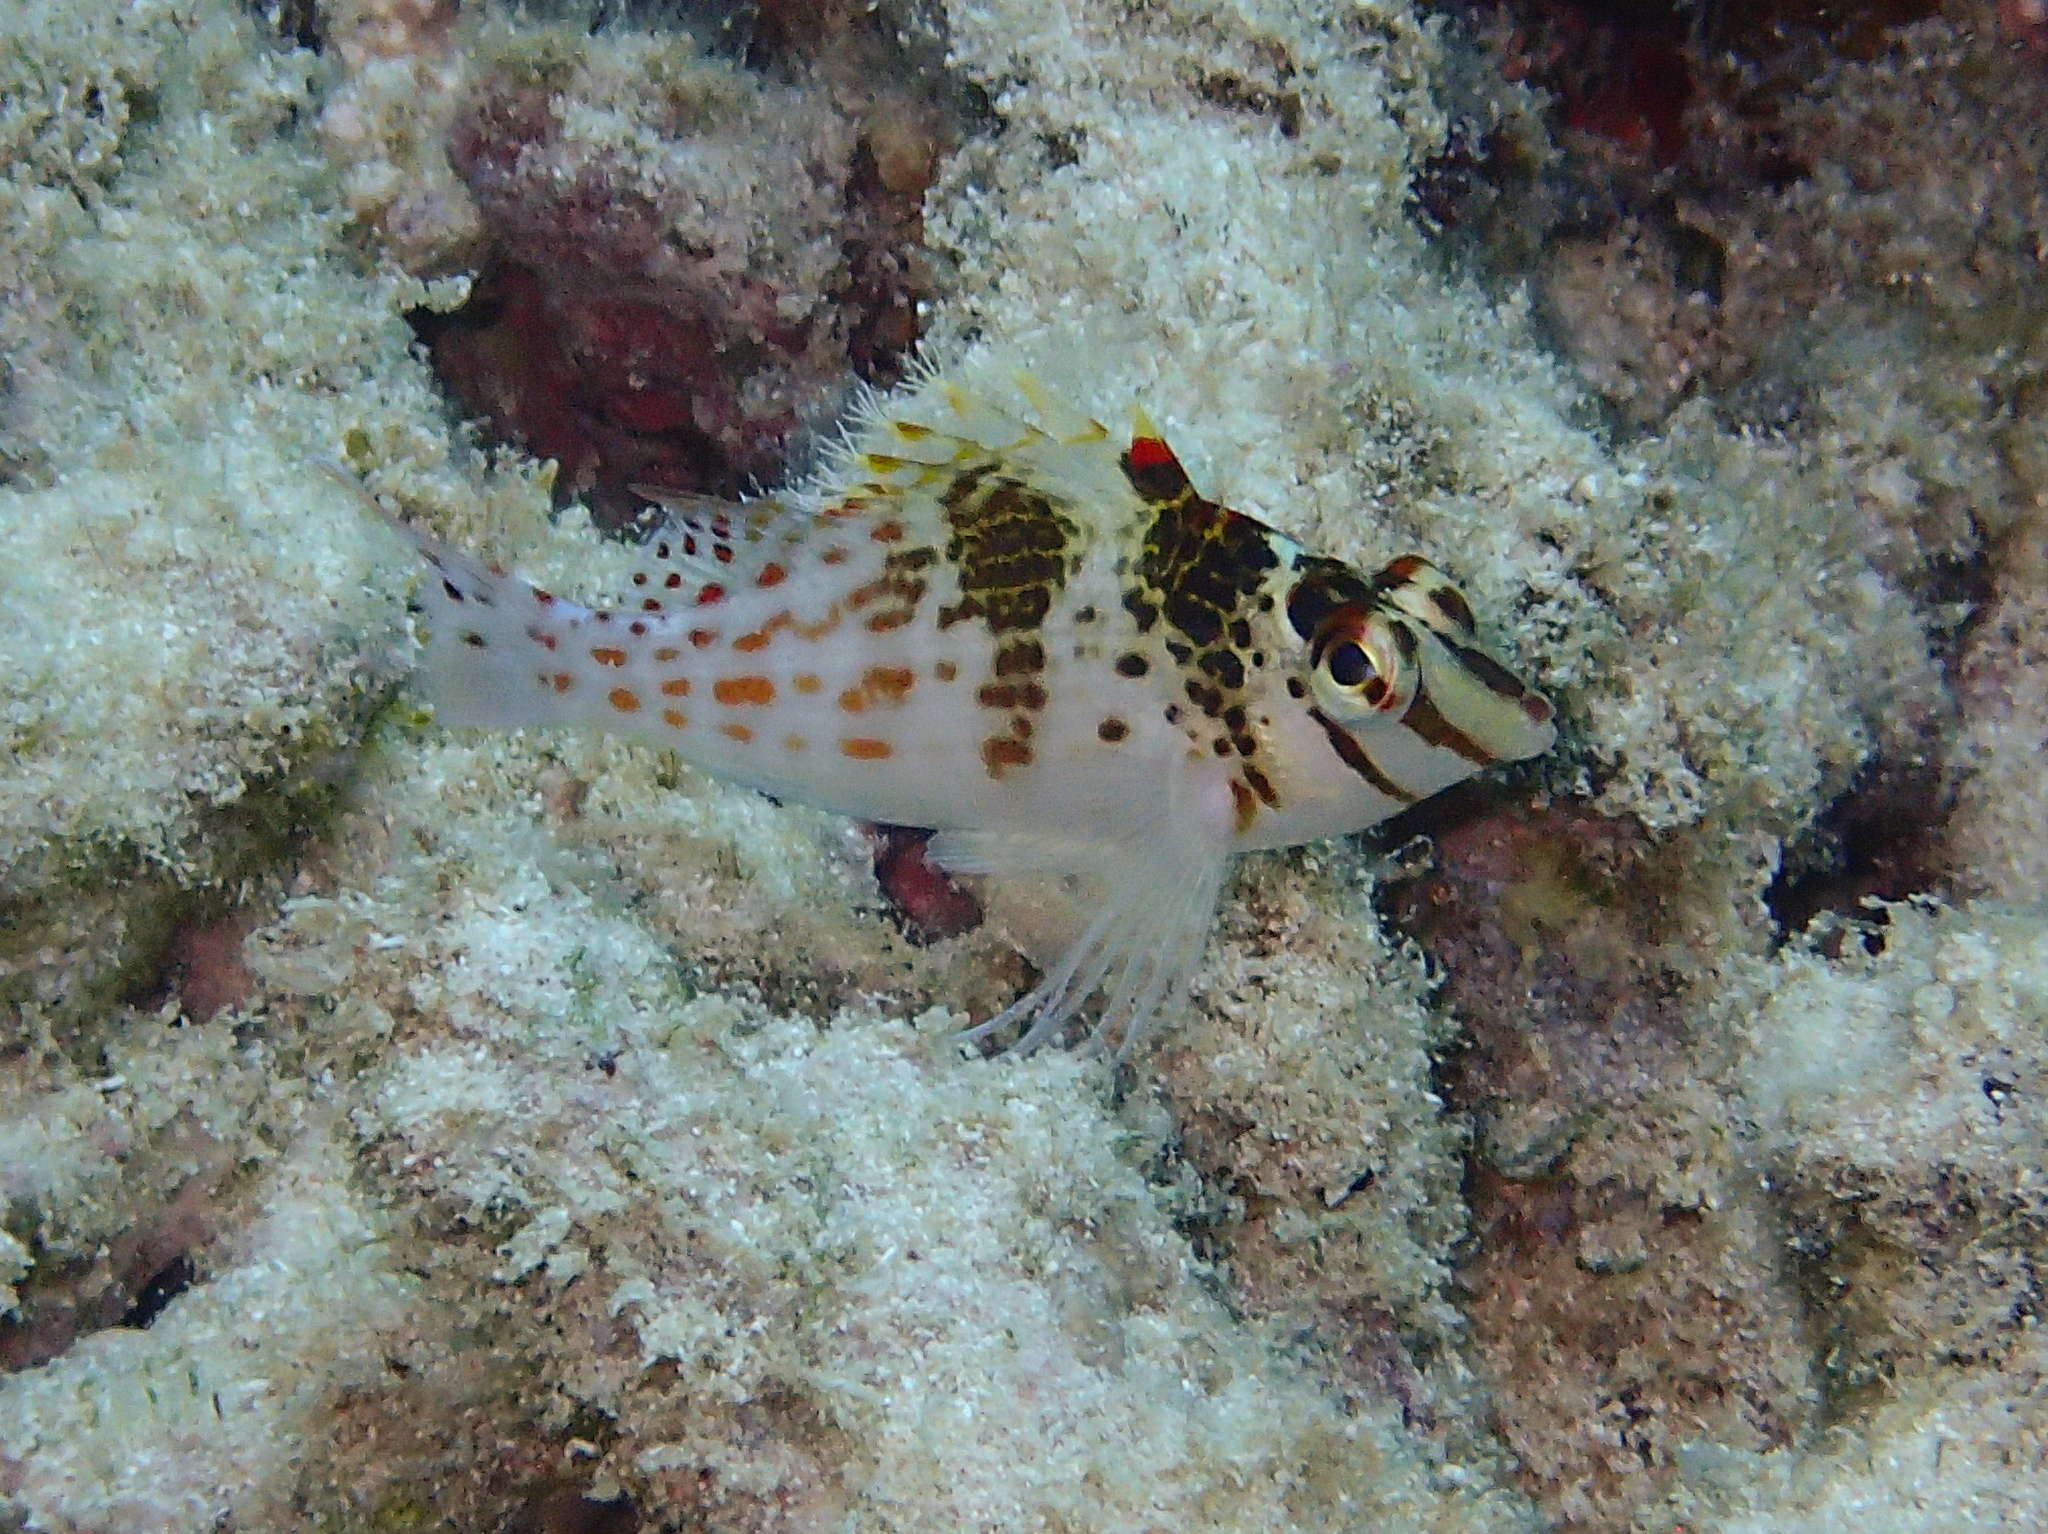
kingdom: Animalia
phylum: Chordata
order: Perciformes
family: Cirrhitidae
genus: Cirrhitichthys
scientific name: Cirrhitichthys falco
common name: Coral hawkfish
